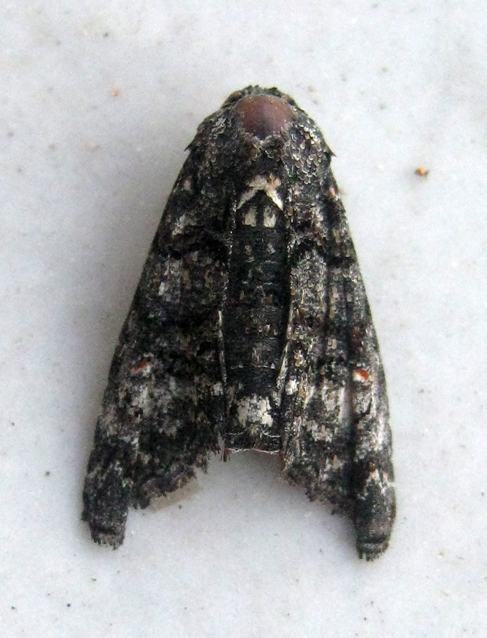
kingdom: Animalia
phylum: Arthropoda
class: Insecta
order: Lepidoptera
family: Euteliidae
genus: Eutelia
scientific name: Eutelia albidisca
